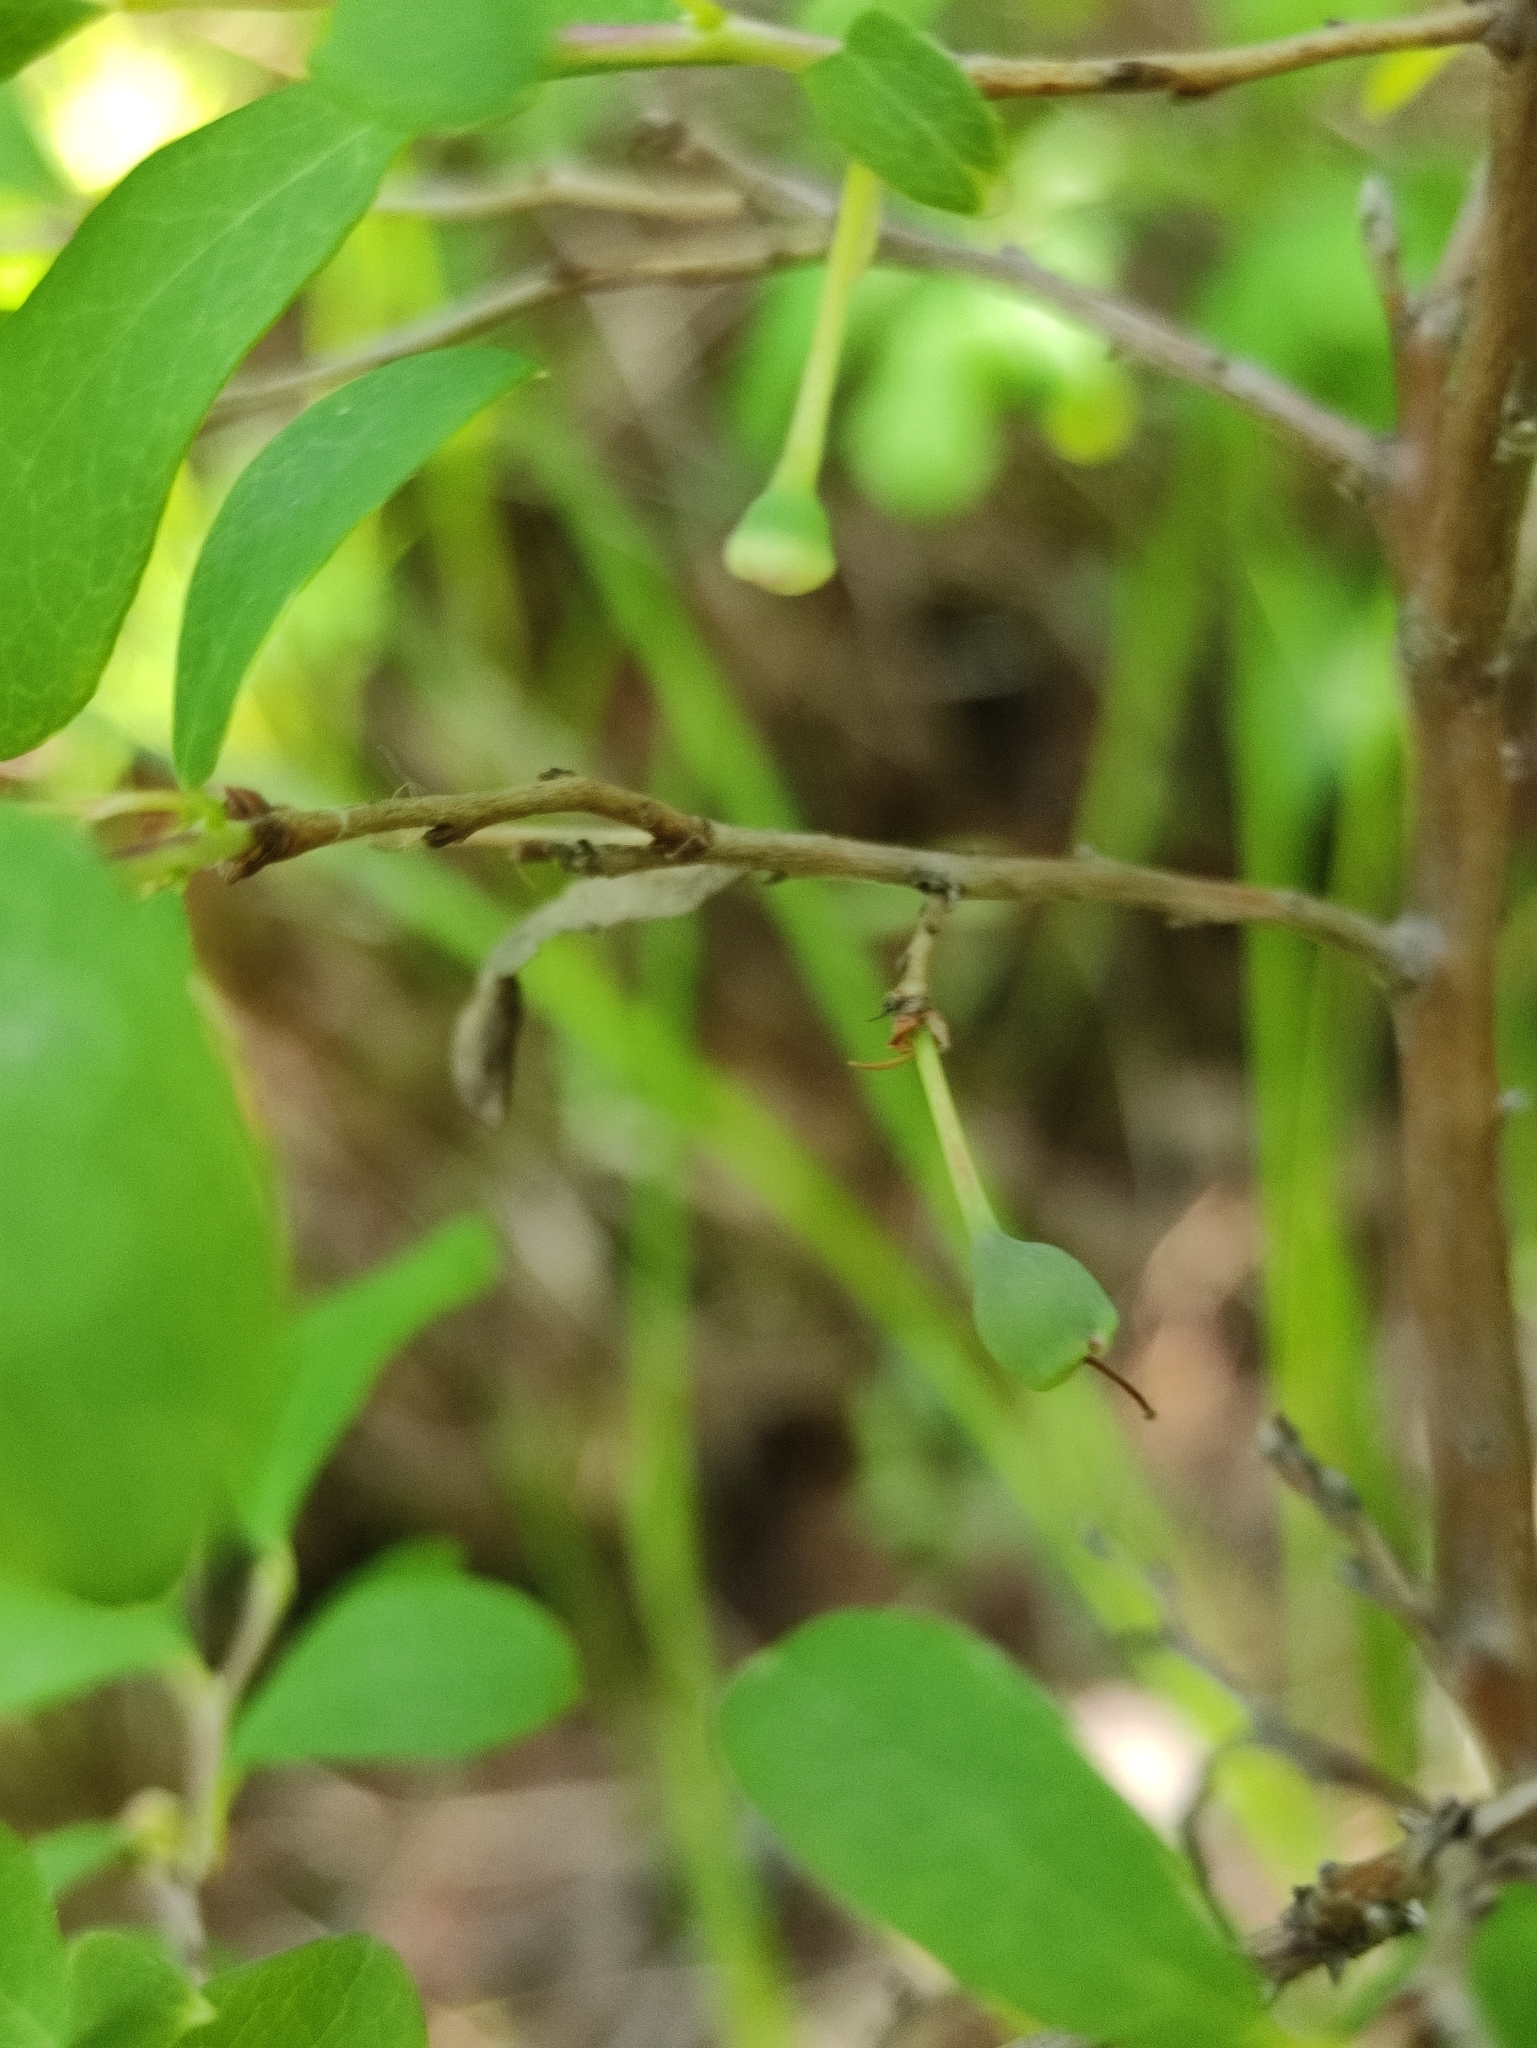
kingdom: Plantae
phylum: Tracheophyta
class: Magnoliopsida
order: Ericales
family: Ericaceae
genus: Vaccinium
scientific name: Vaccinium uliginosum
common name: Bog bilberry
